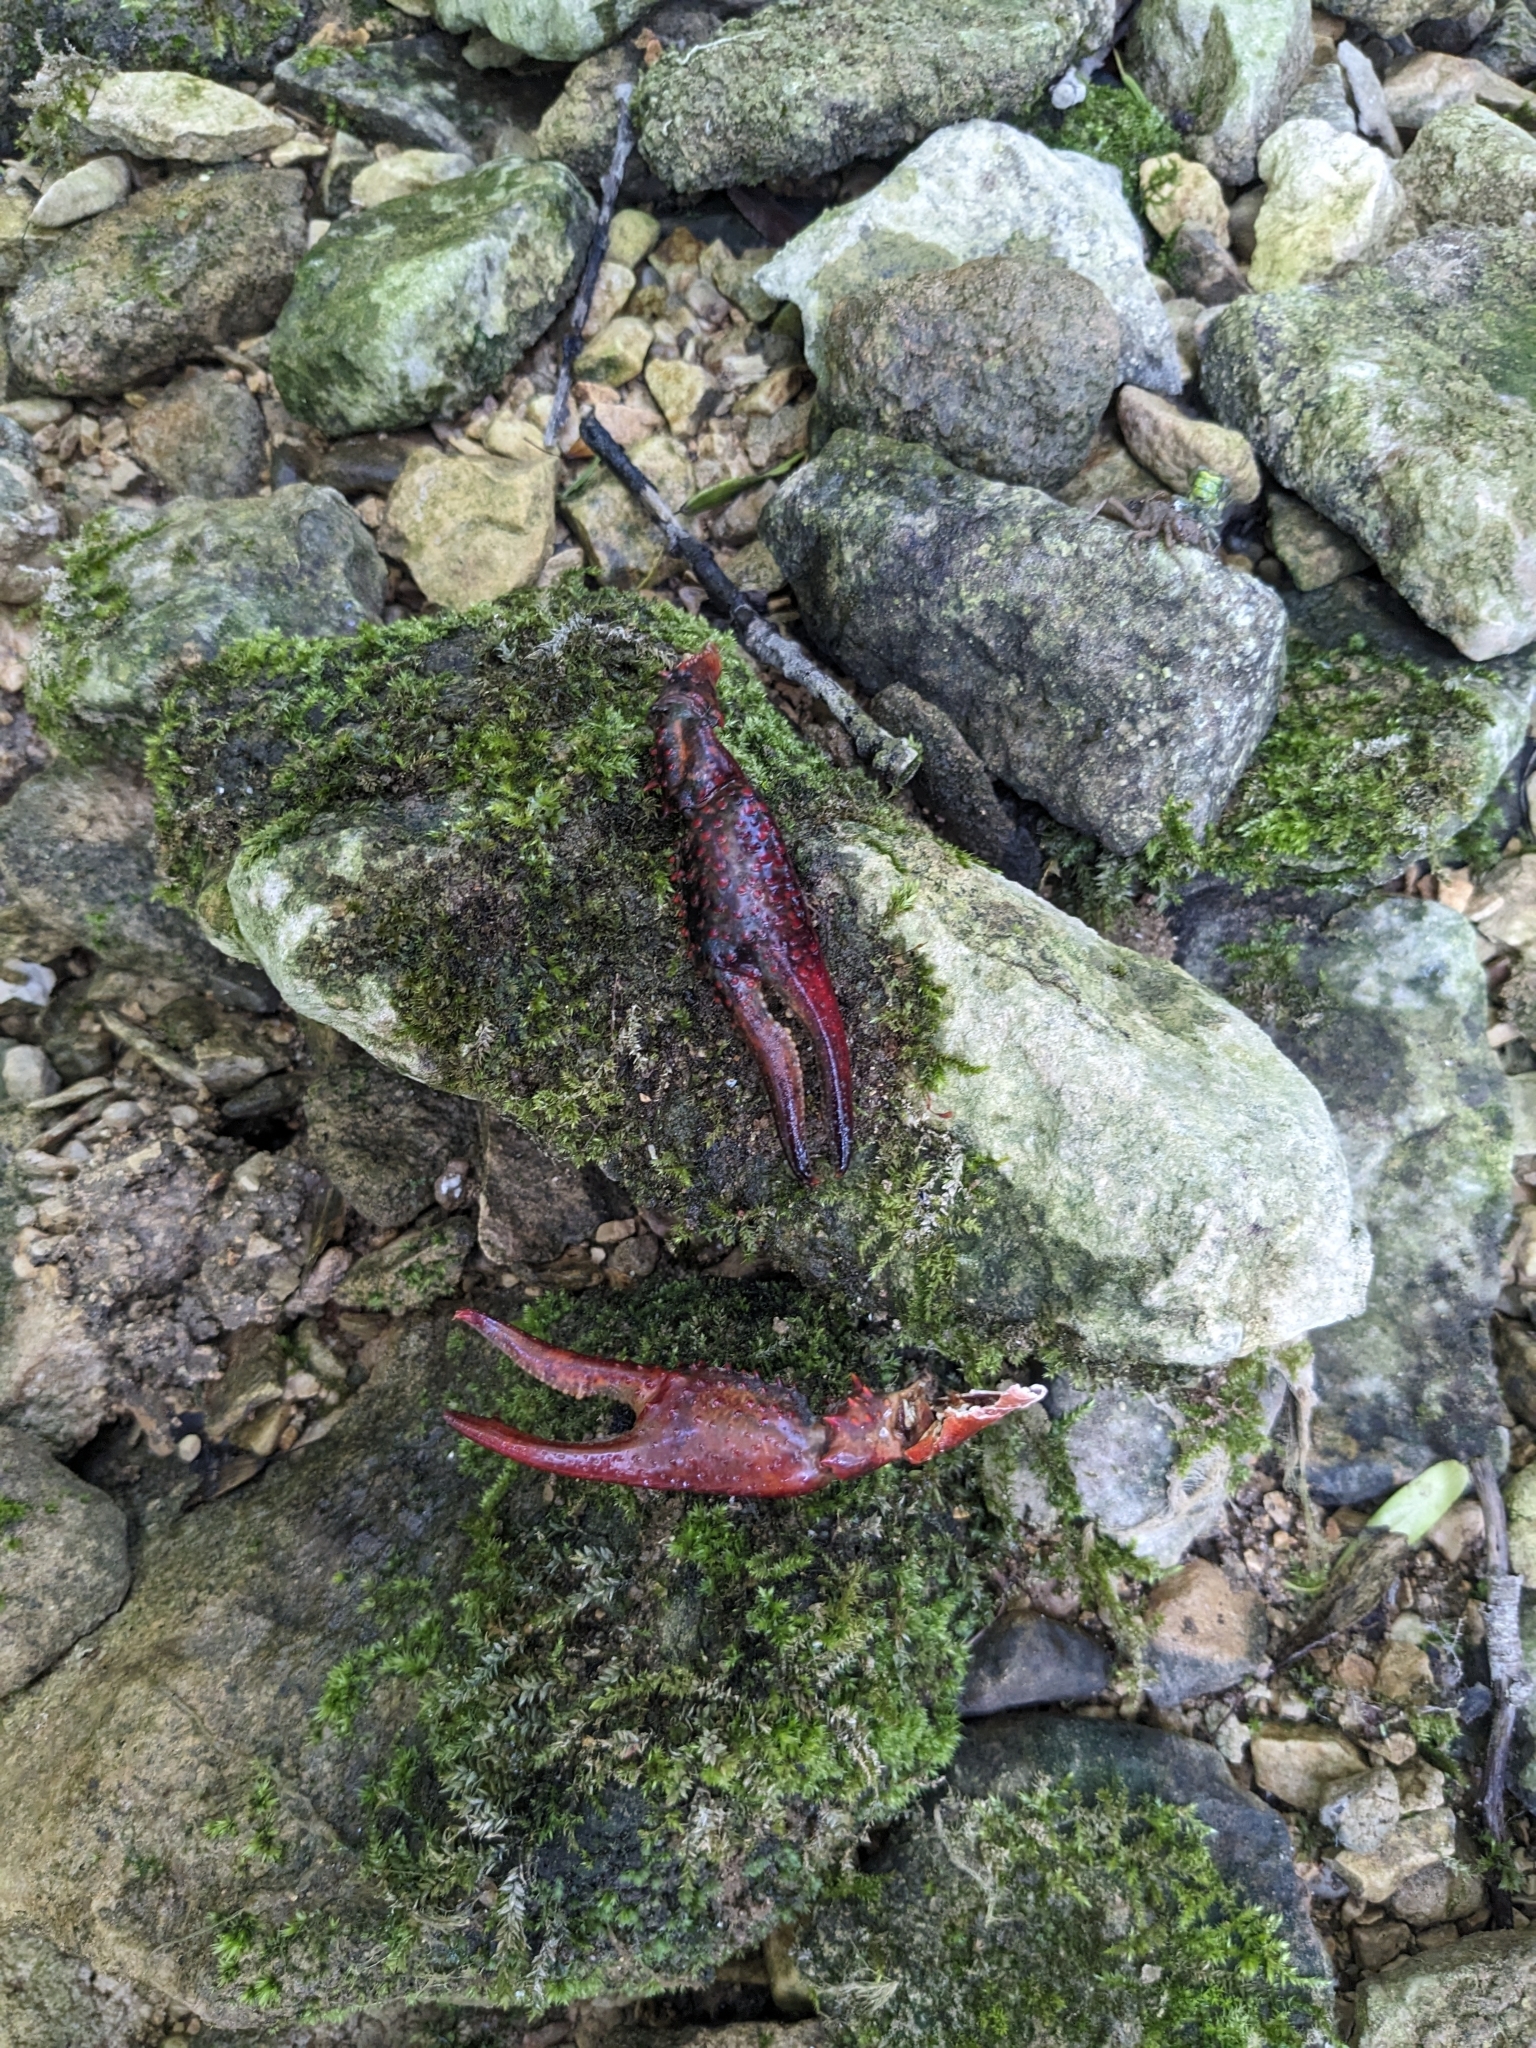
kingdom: Animalia
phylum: Arthropoda
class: Malacostraca
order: Decapoda
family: Cambaridae
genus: Procambarus
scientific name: Procambarus clarkii
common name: Red swamp crayfish
